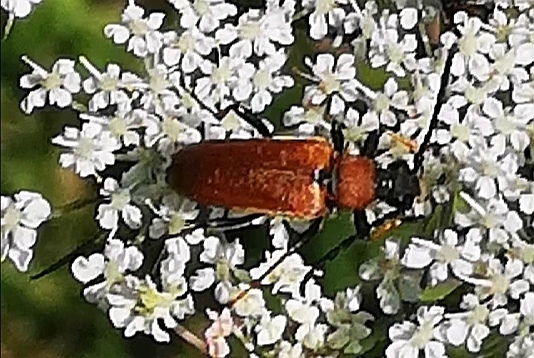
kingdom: Animalia
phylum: Arthropoda
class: Insecta
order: Coleoptera
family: Cerambycidae
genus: Stictoleptura
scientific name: Stictoleptura rubra
